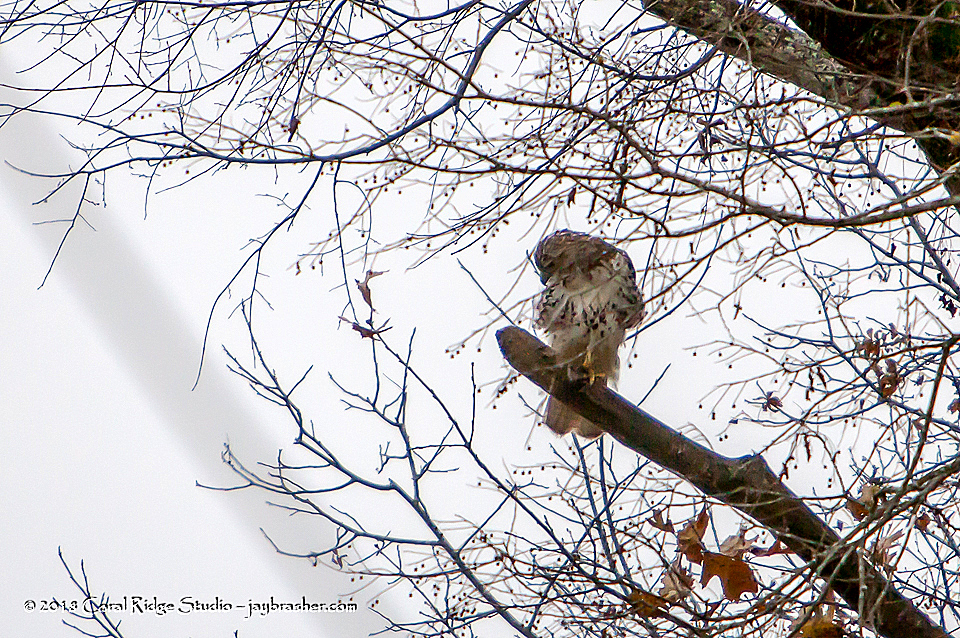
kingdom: Animalia
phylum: Chordata
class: Aves
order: Accipitriformes
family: Accipitridae
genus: Buteo
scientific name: Buteo jamaicensis
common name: Red-tailed hawk
